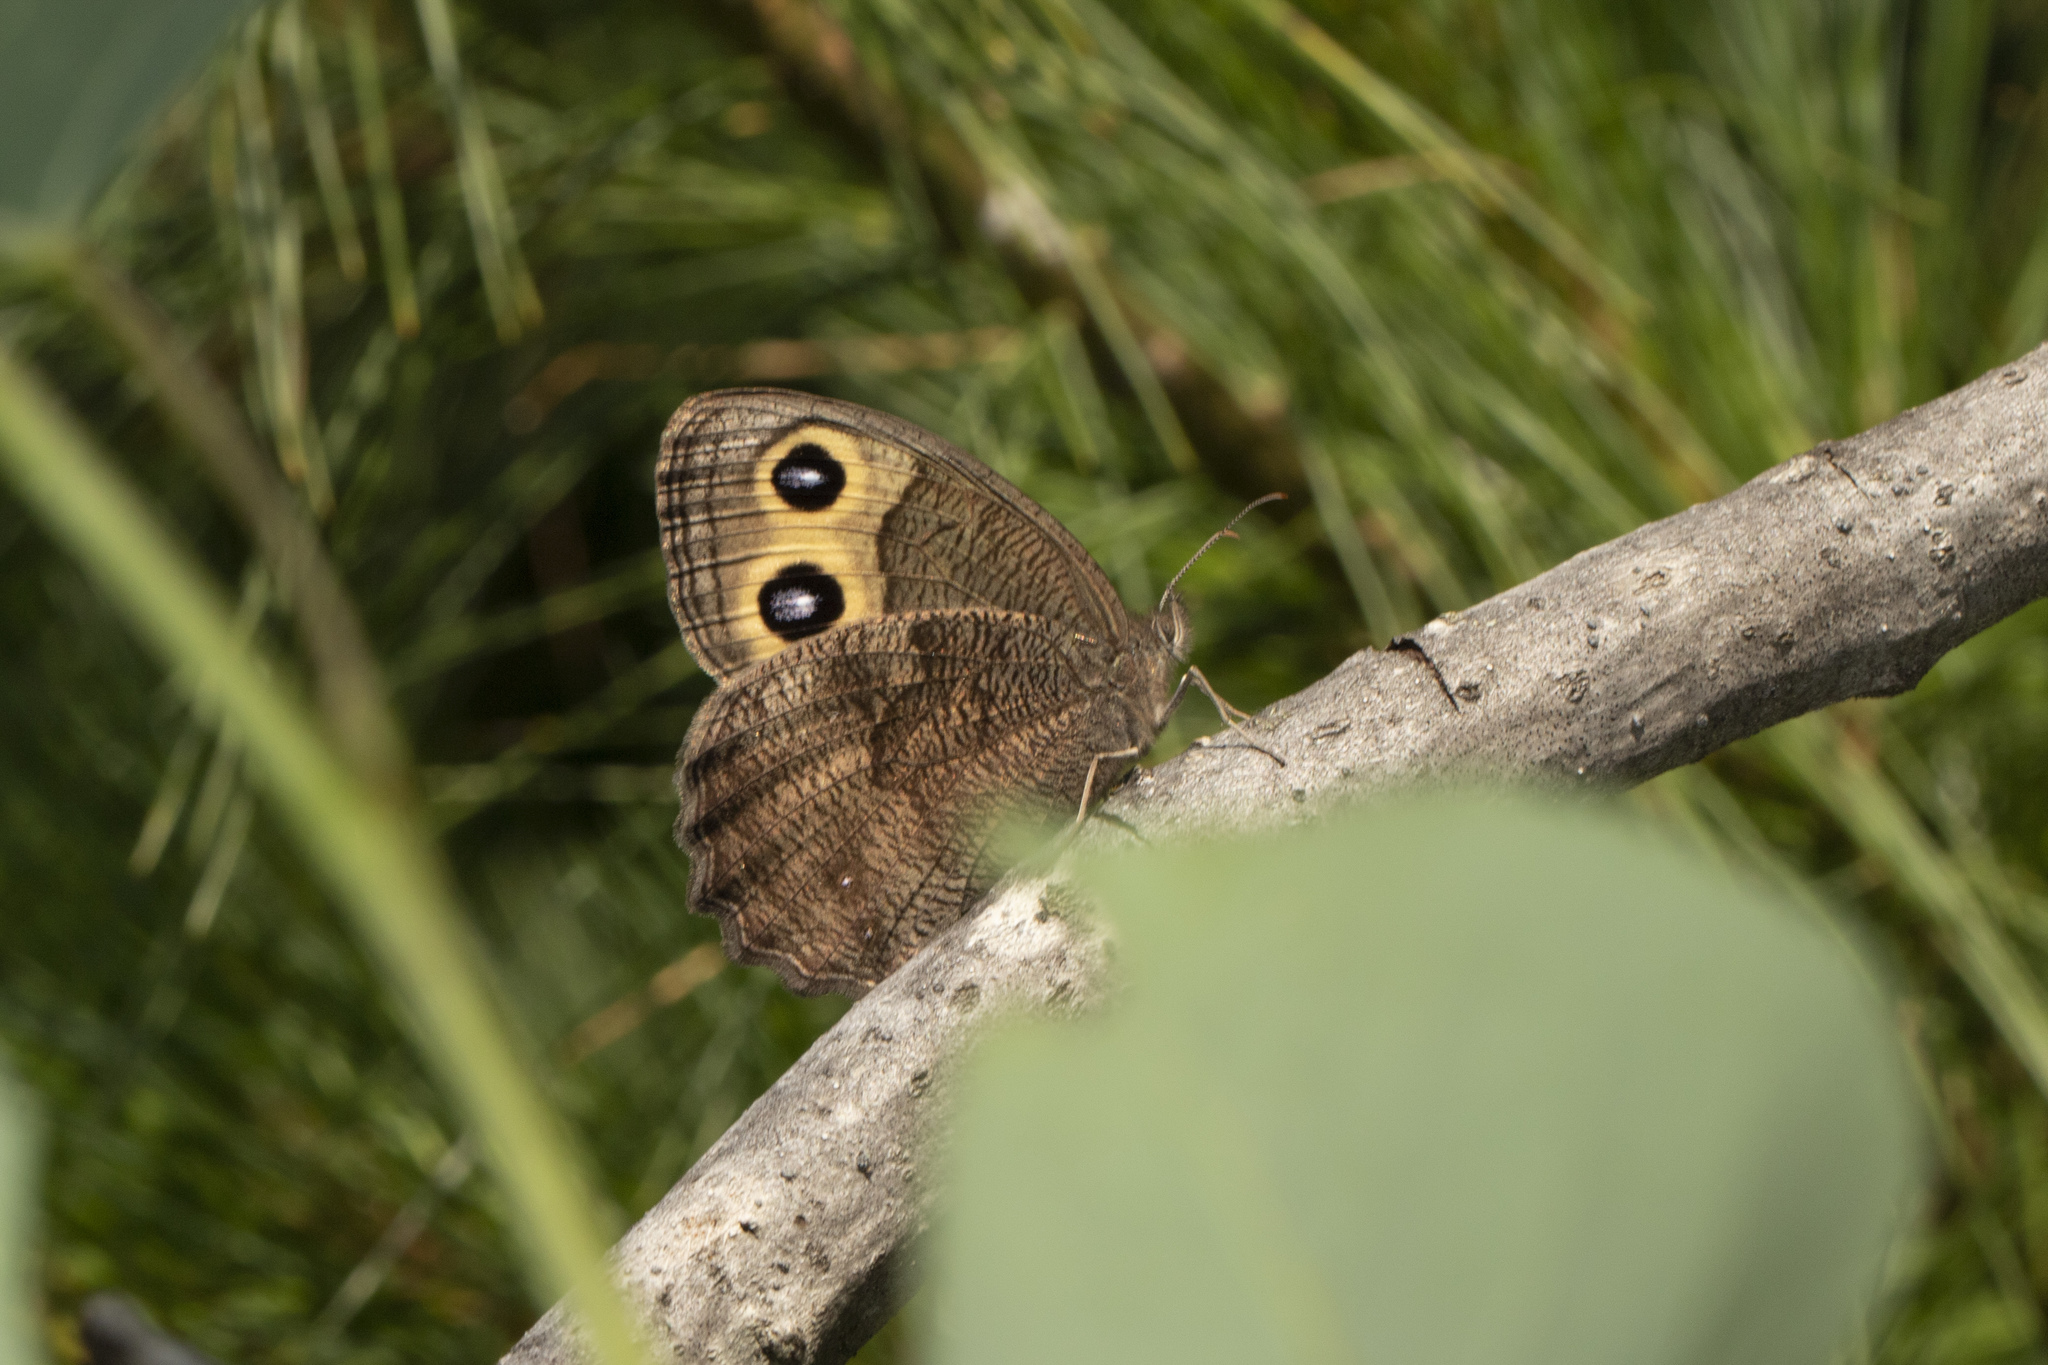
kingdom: Animalia
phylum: Arthropoda
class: Insecta
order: Lepidoptera
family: Nymphalidae
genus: Cercyonis
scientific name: Cercyonis pegala
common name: Common wood-nymph
